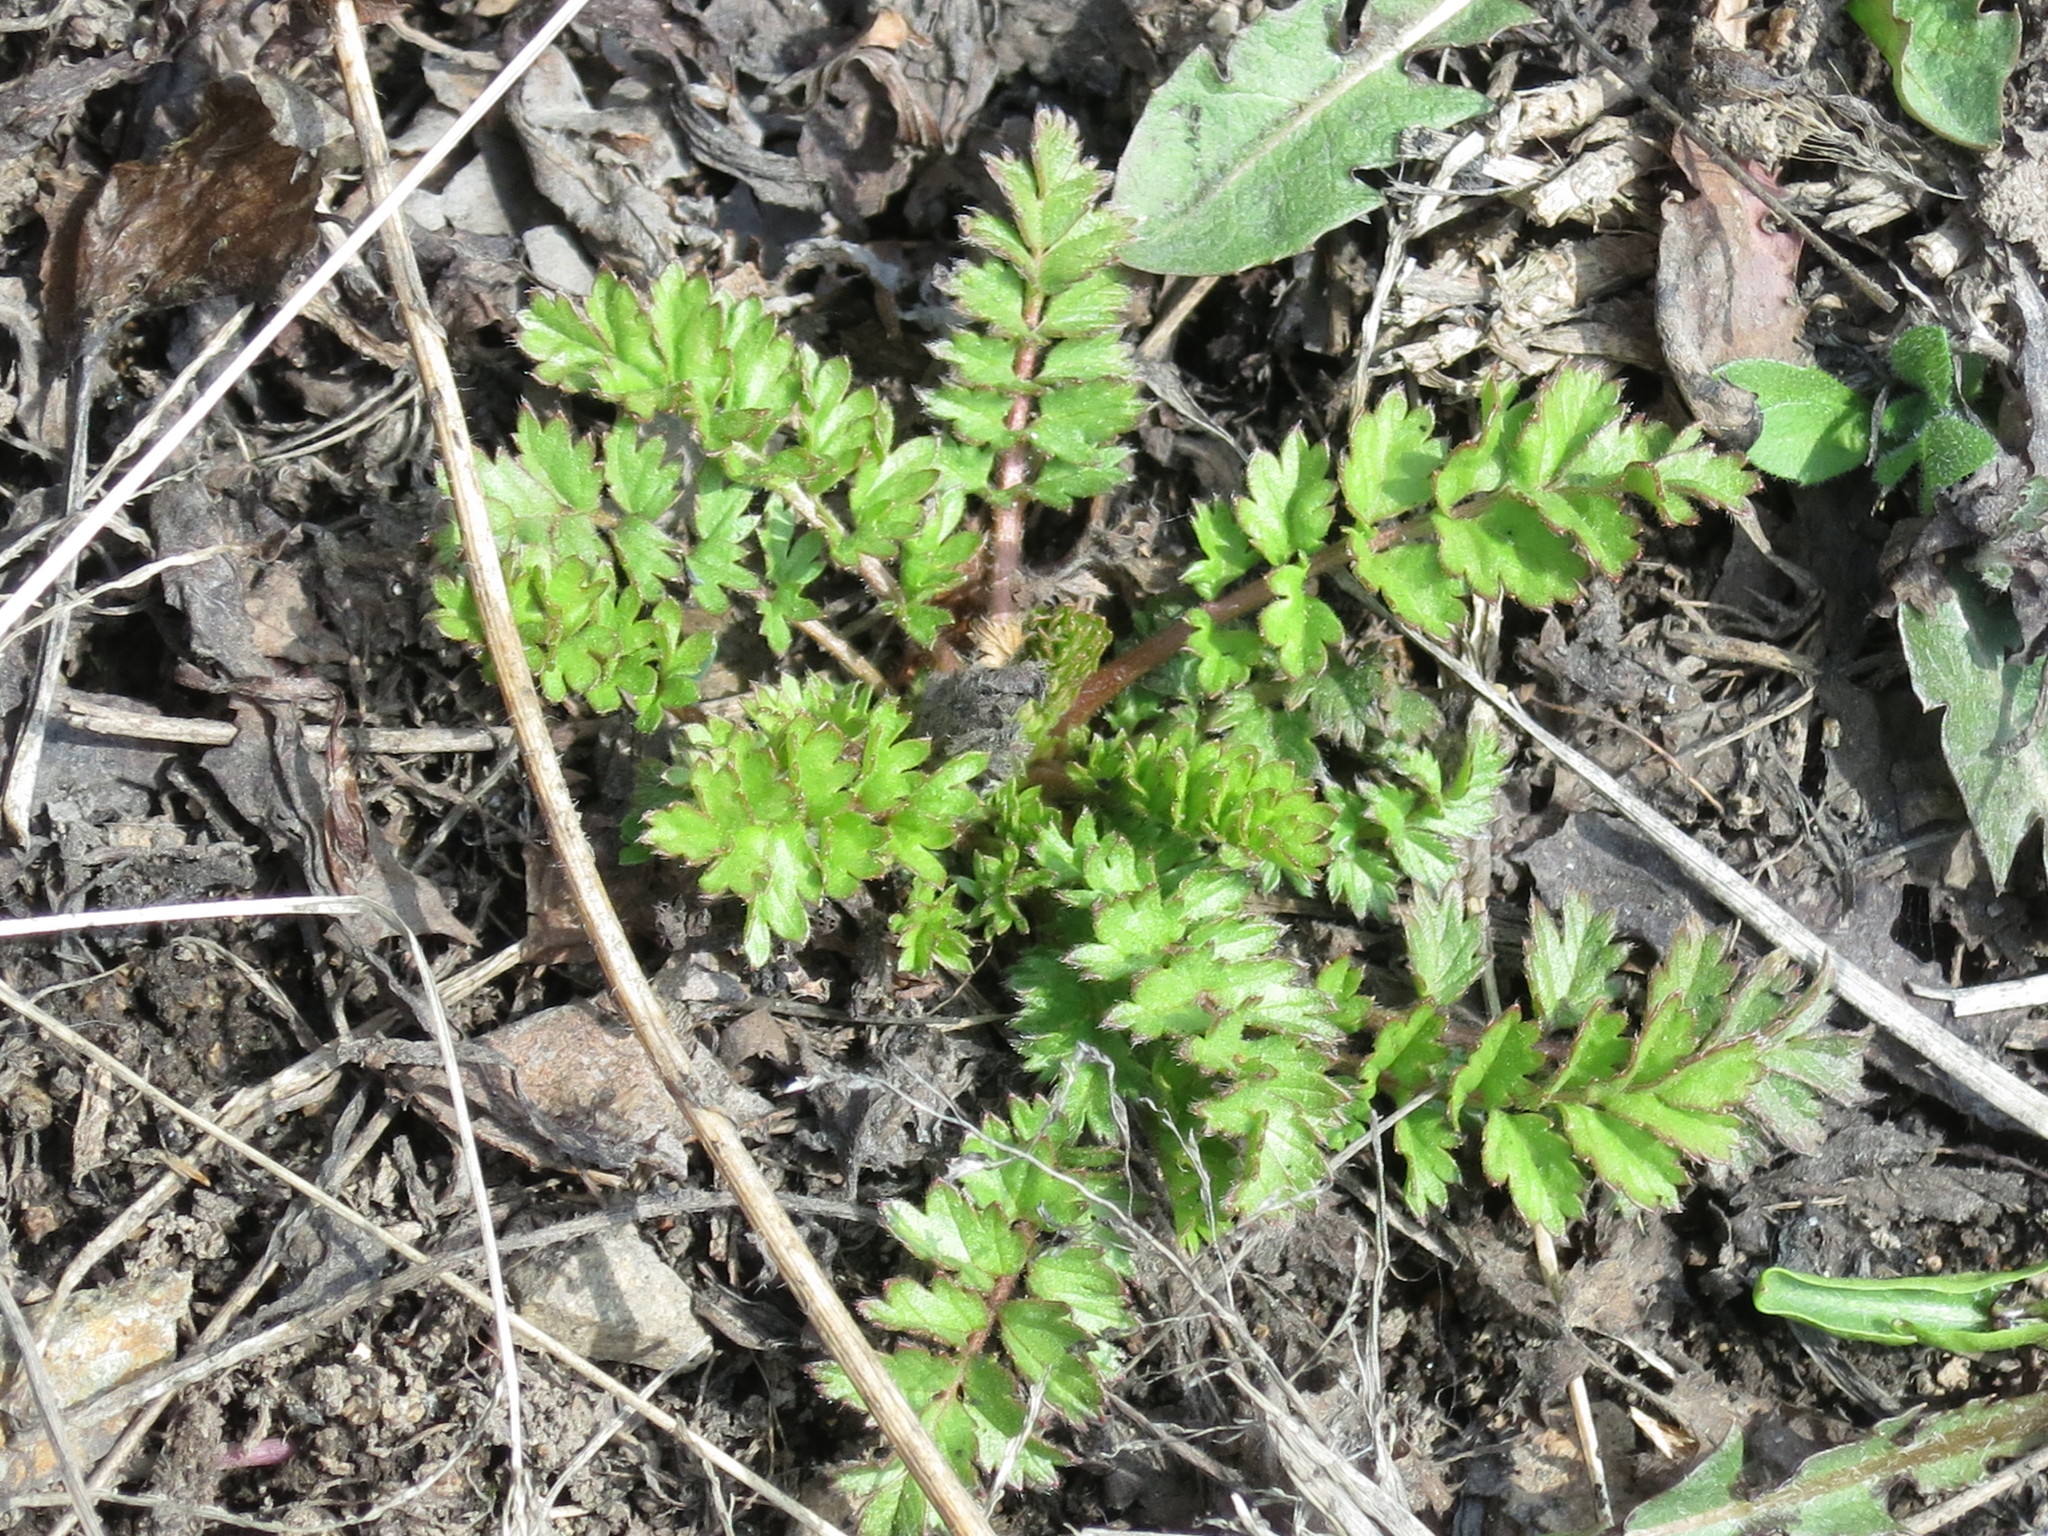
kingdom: Plantae
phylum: Tracheophyta
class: Magnoliopsida
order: Rosales
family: Rosaceae
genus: Potentilla
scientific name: Potentilla supina
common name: Prostrate cinquefoil
